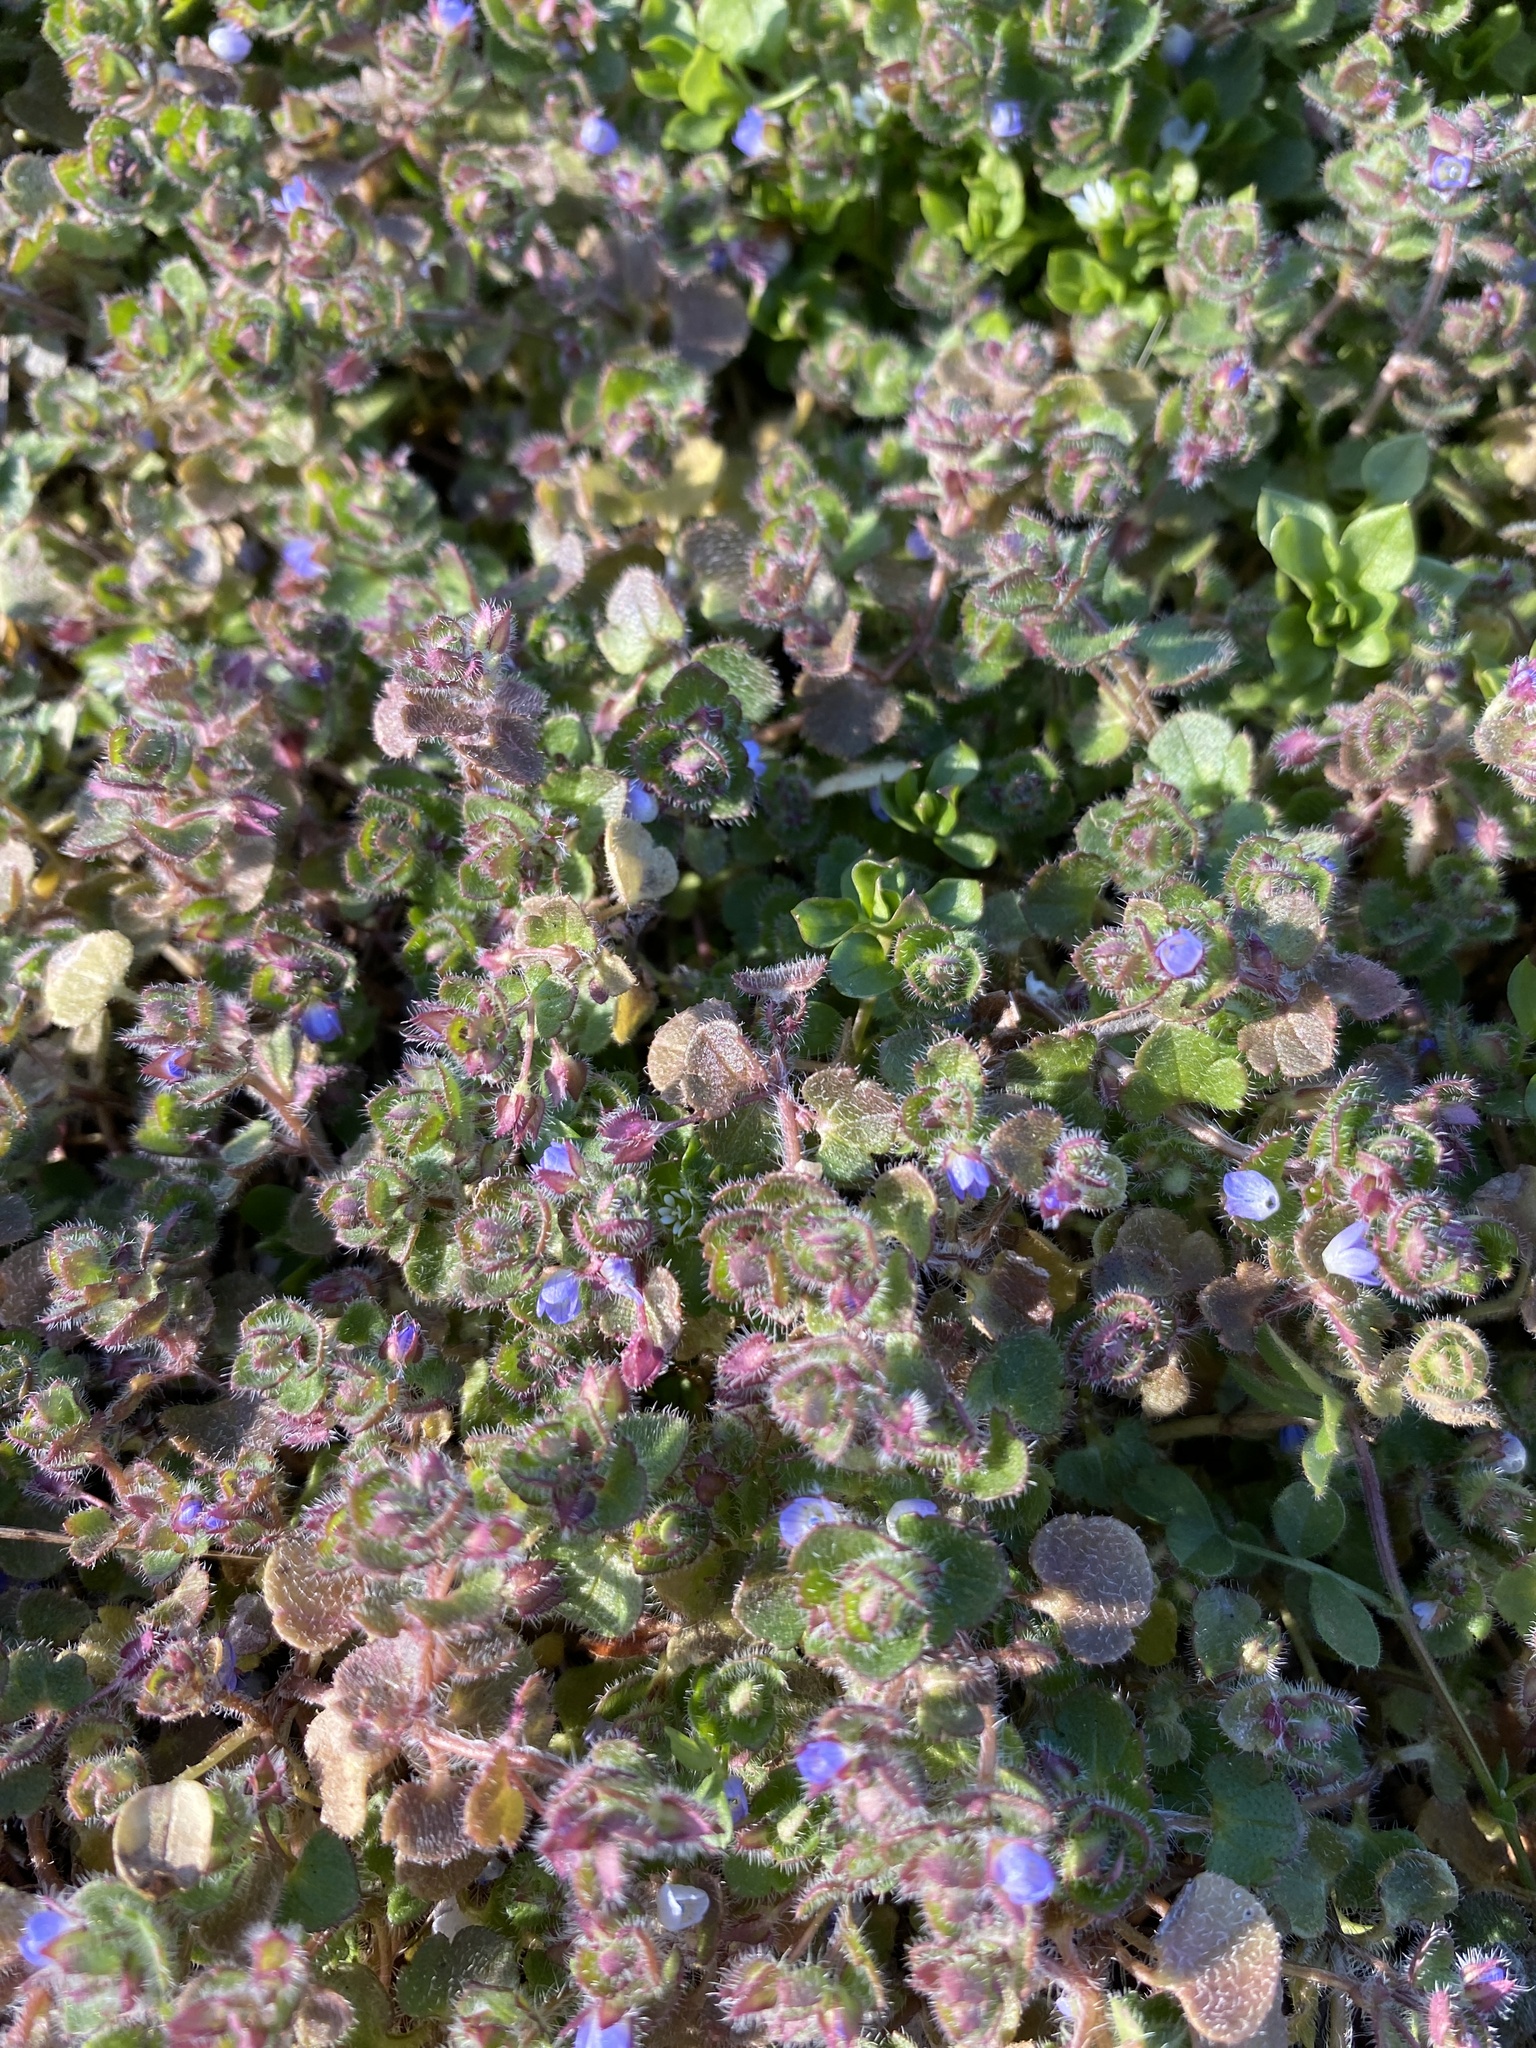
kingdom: Plantae
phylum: Tracheophyta
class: Magnoliopsida
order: Lamiales
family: Plantaginaceae
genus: Veronica
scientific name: Veronica hederifolia
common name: Ivy-leaved speedwell
